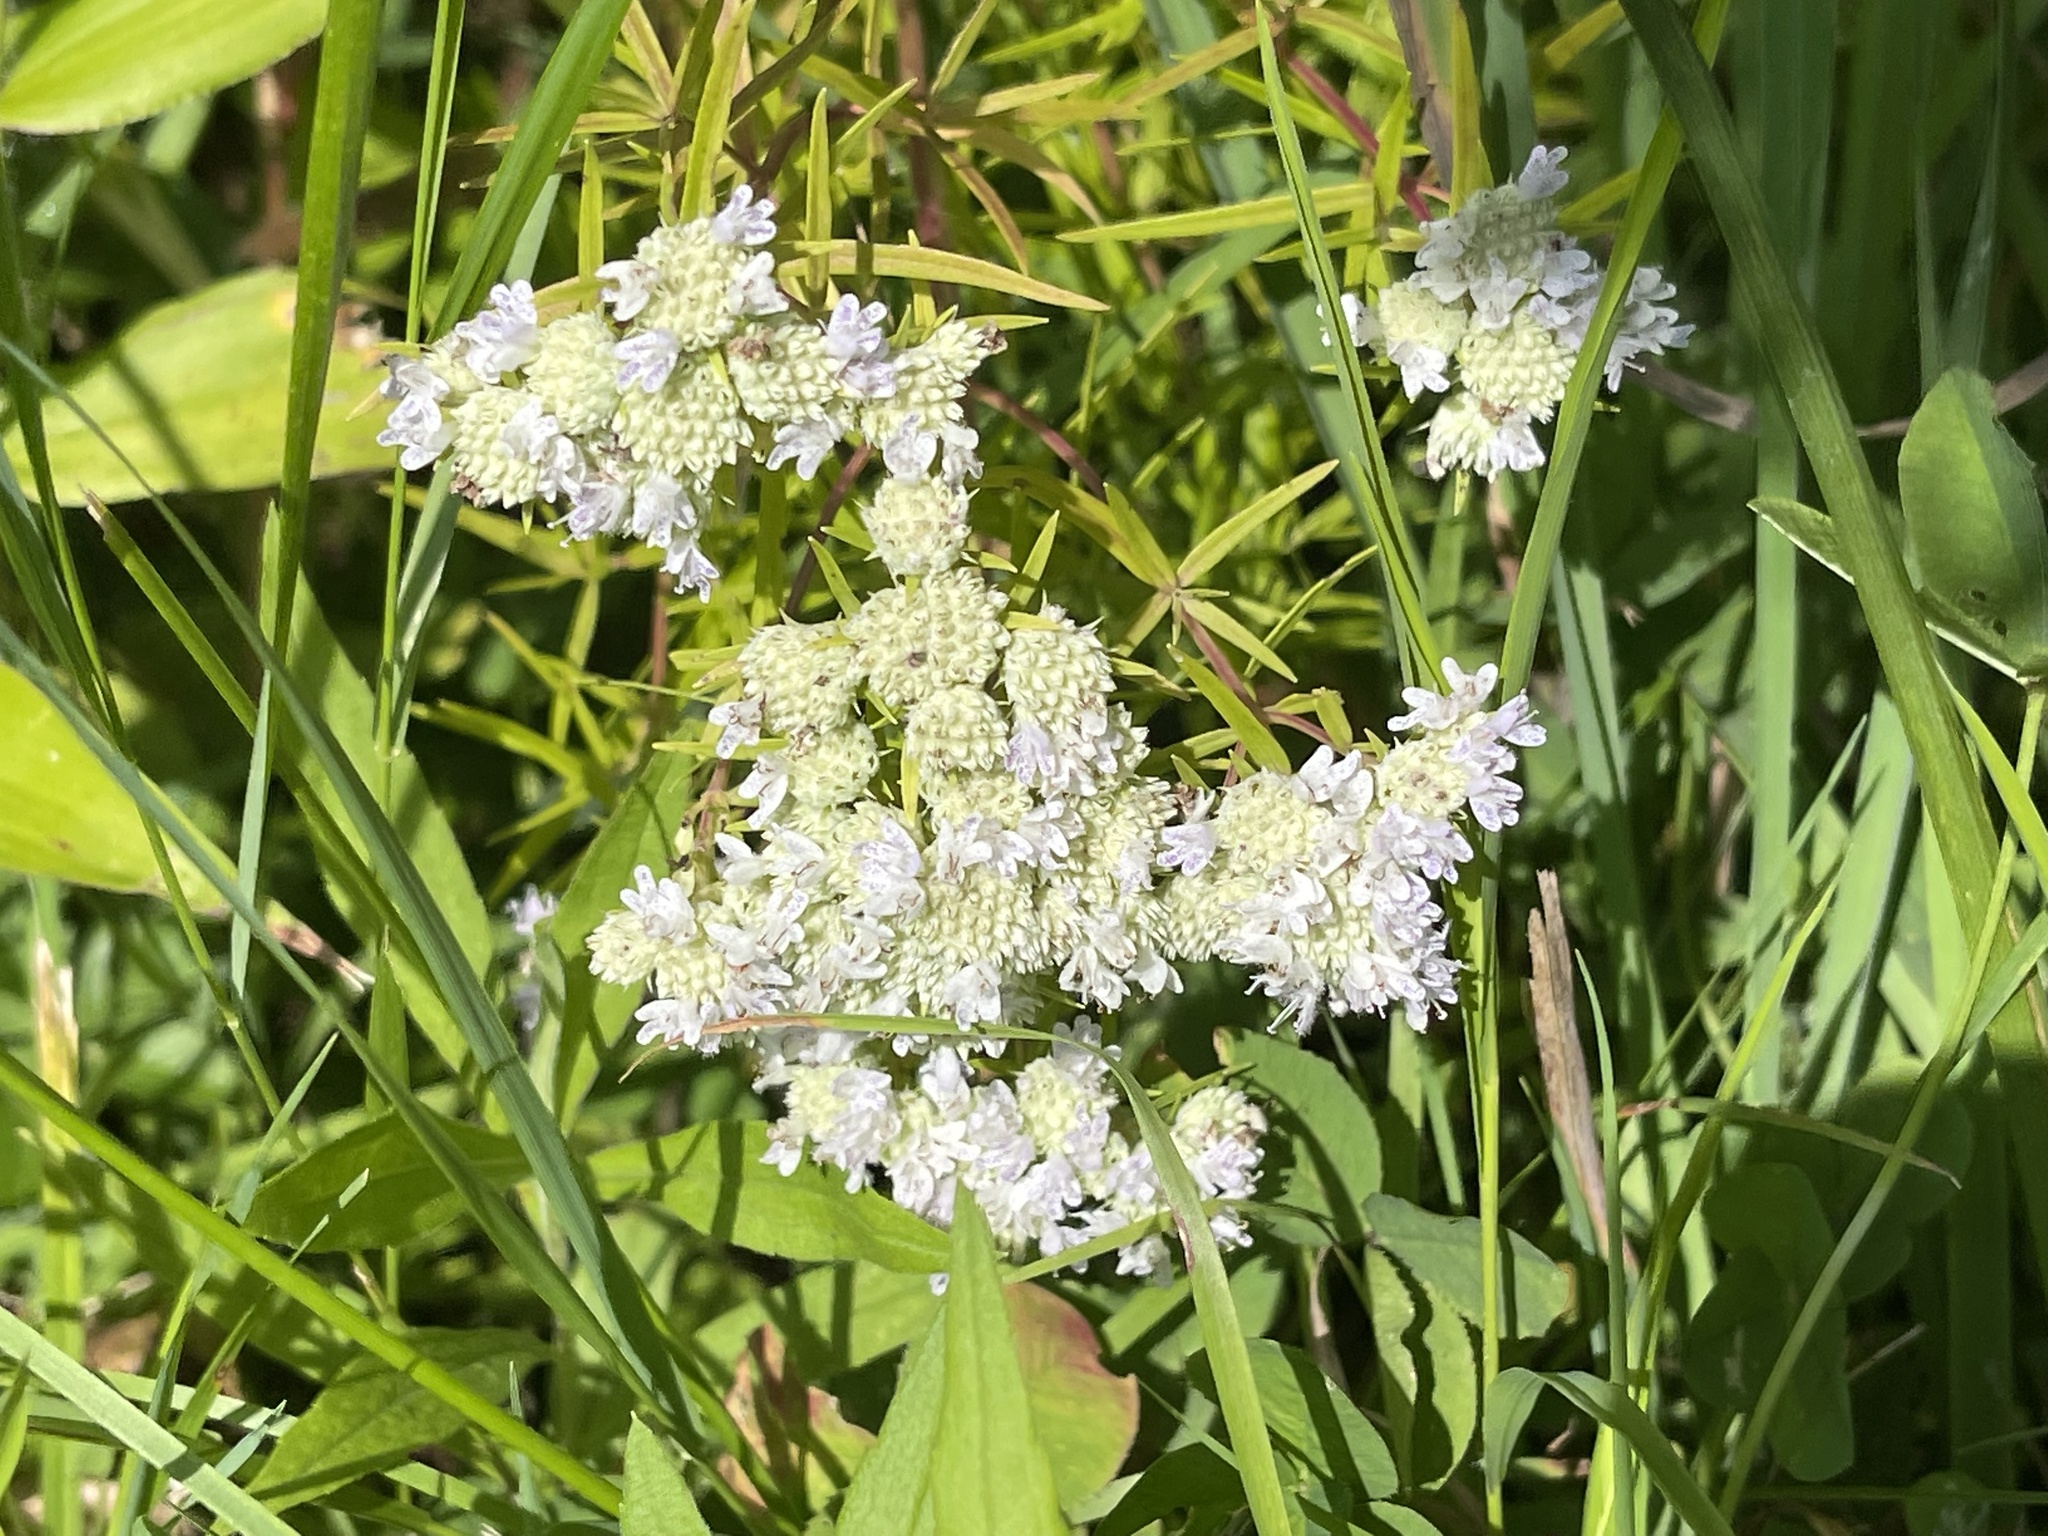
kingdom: Plantae
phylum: Tracheophyta
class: Magnoliopsida
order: Lamiales
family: Lamiaceae
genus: Pycnanthemum
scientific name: Pycnanthemum tenuifolium
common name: Narrow-leaf mountain-mint
